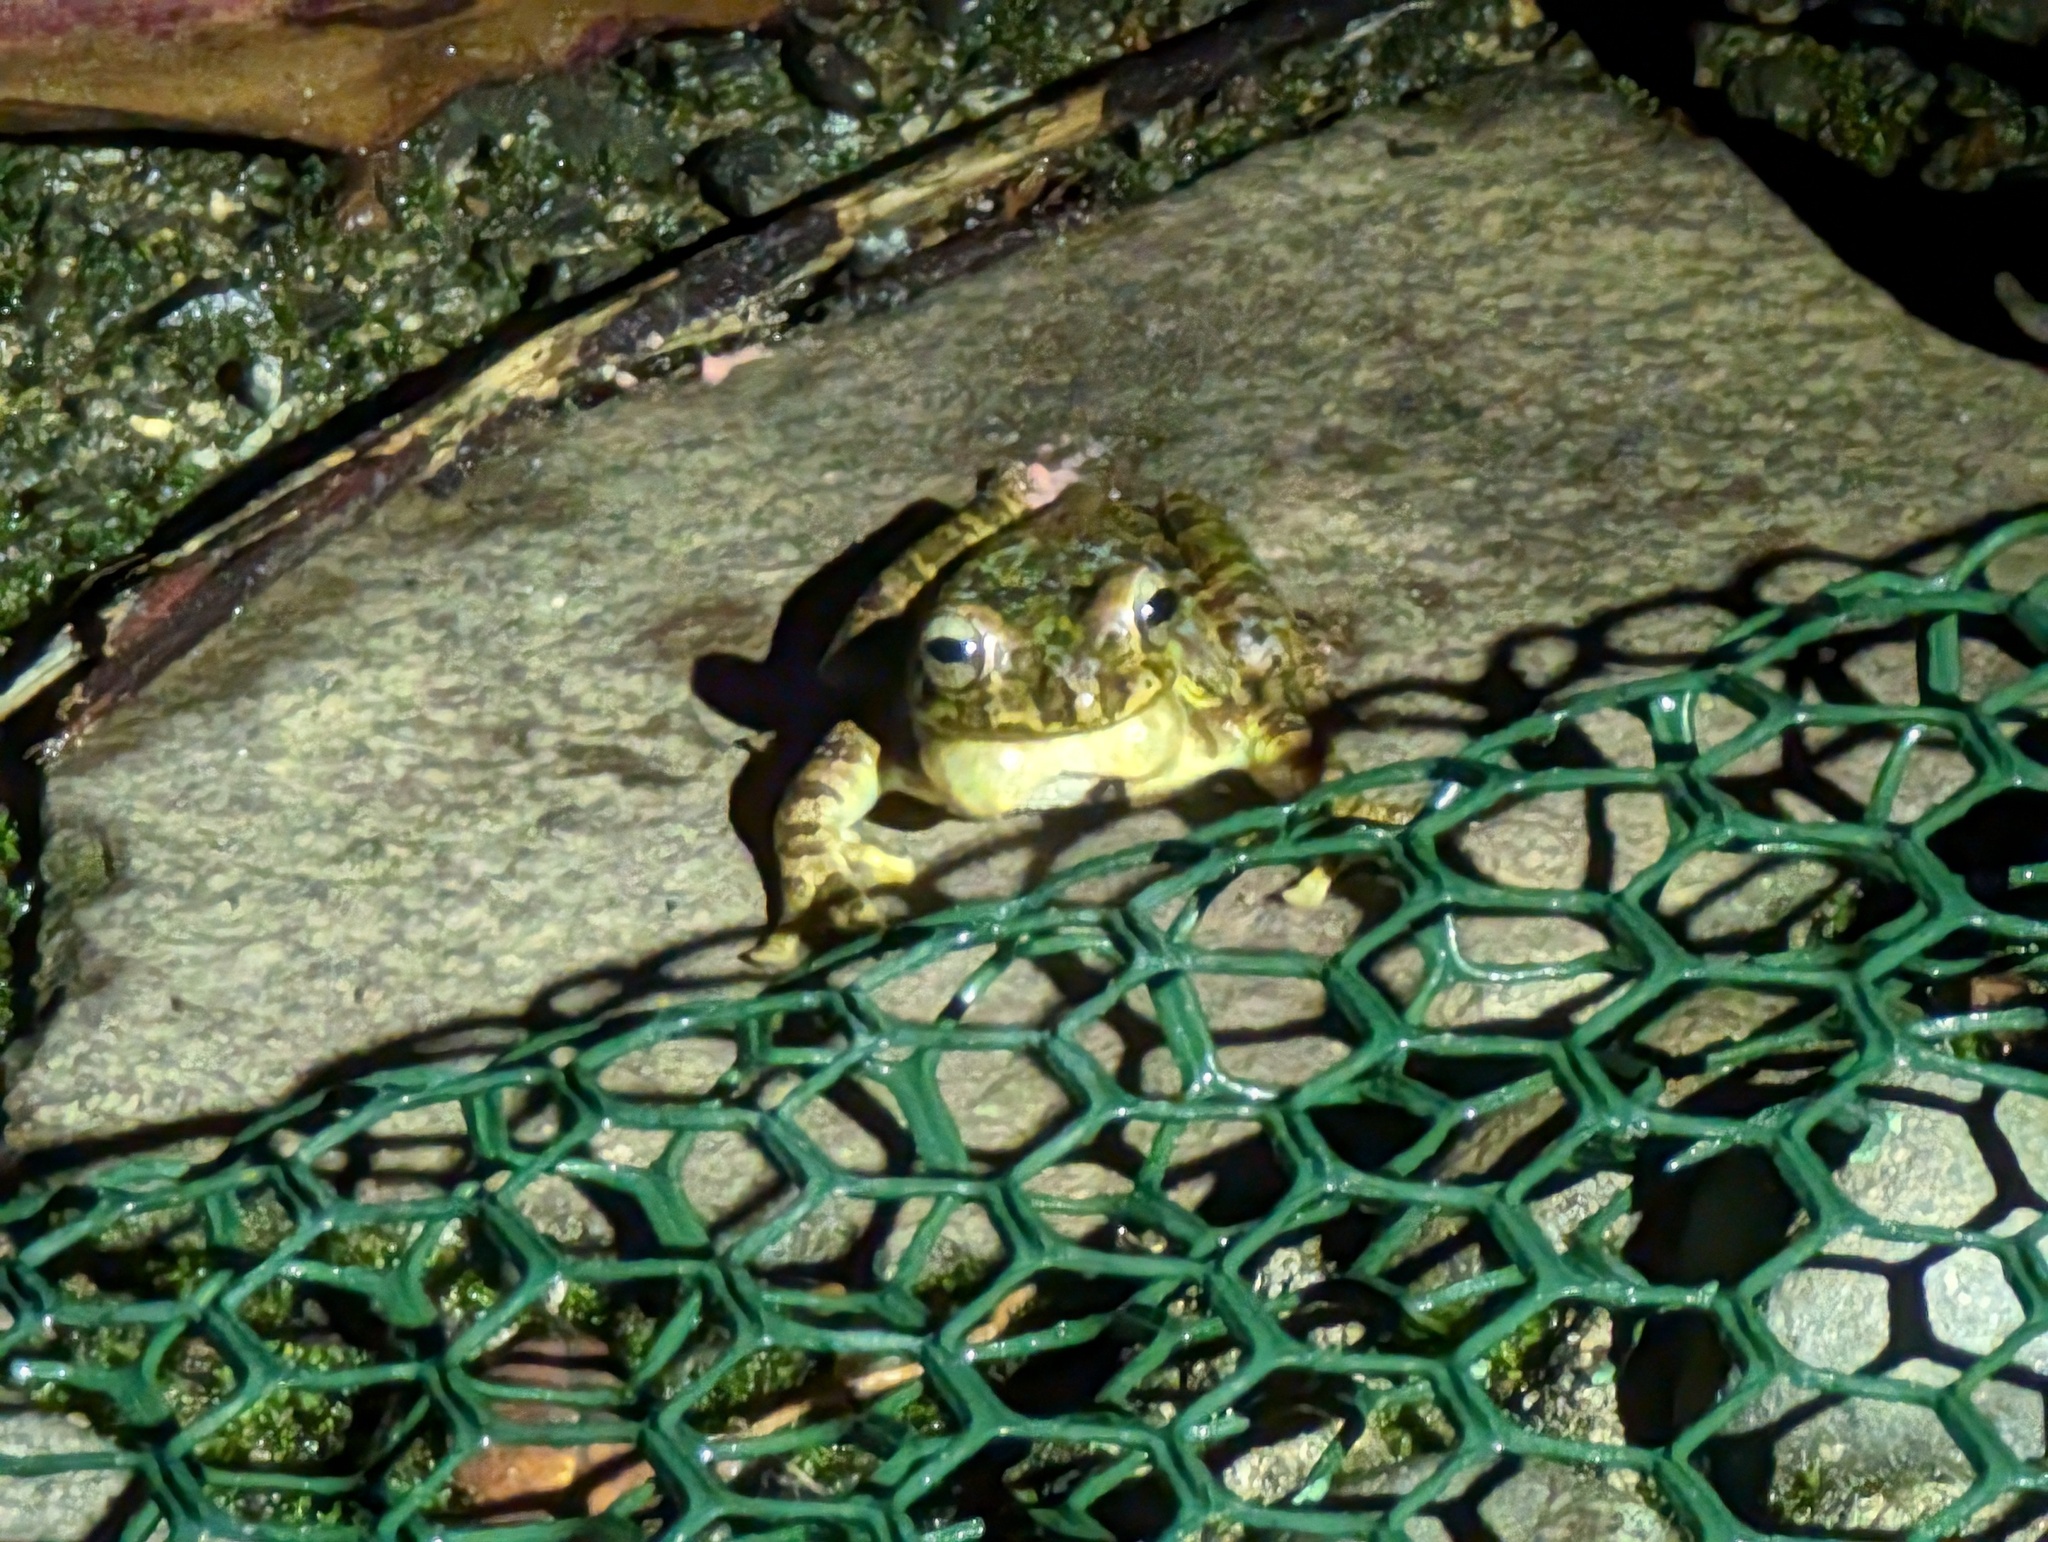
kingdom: Animalia
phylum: Chordata
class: Amphibia
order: Anura
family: Hylidae
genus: Smilisca
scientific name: Smilisca manisorum
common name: Masked tree frog
